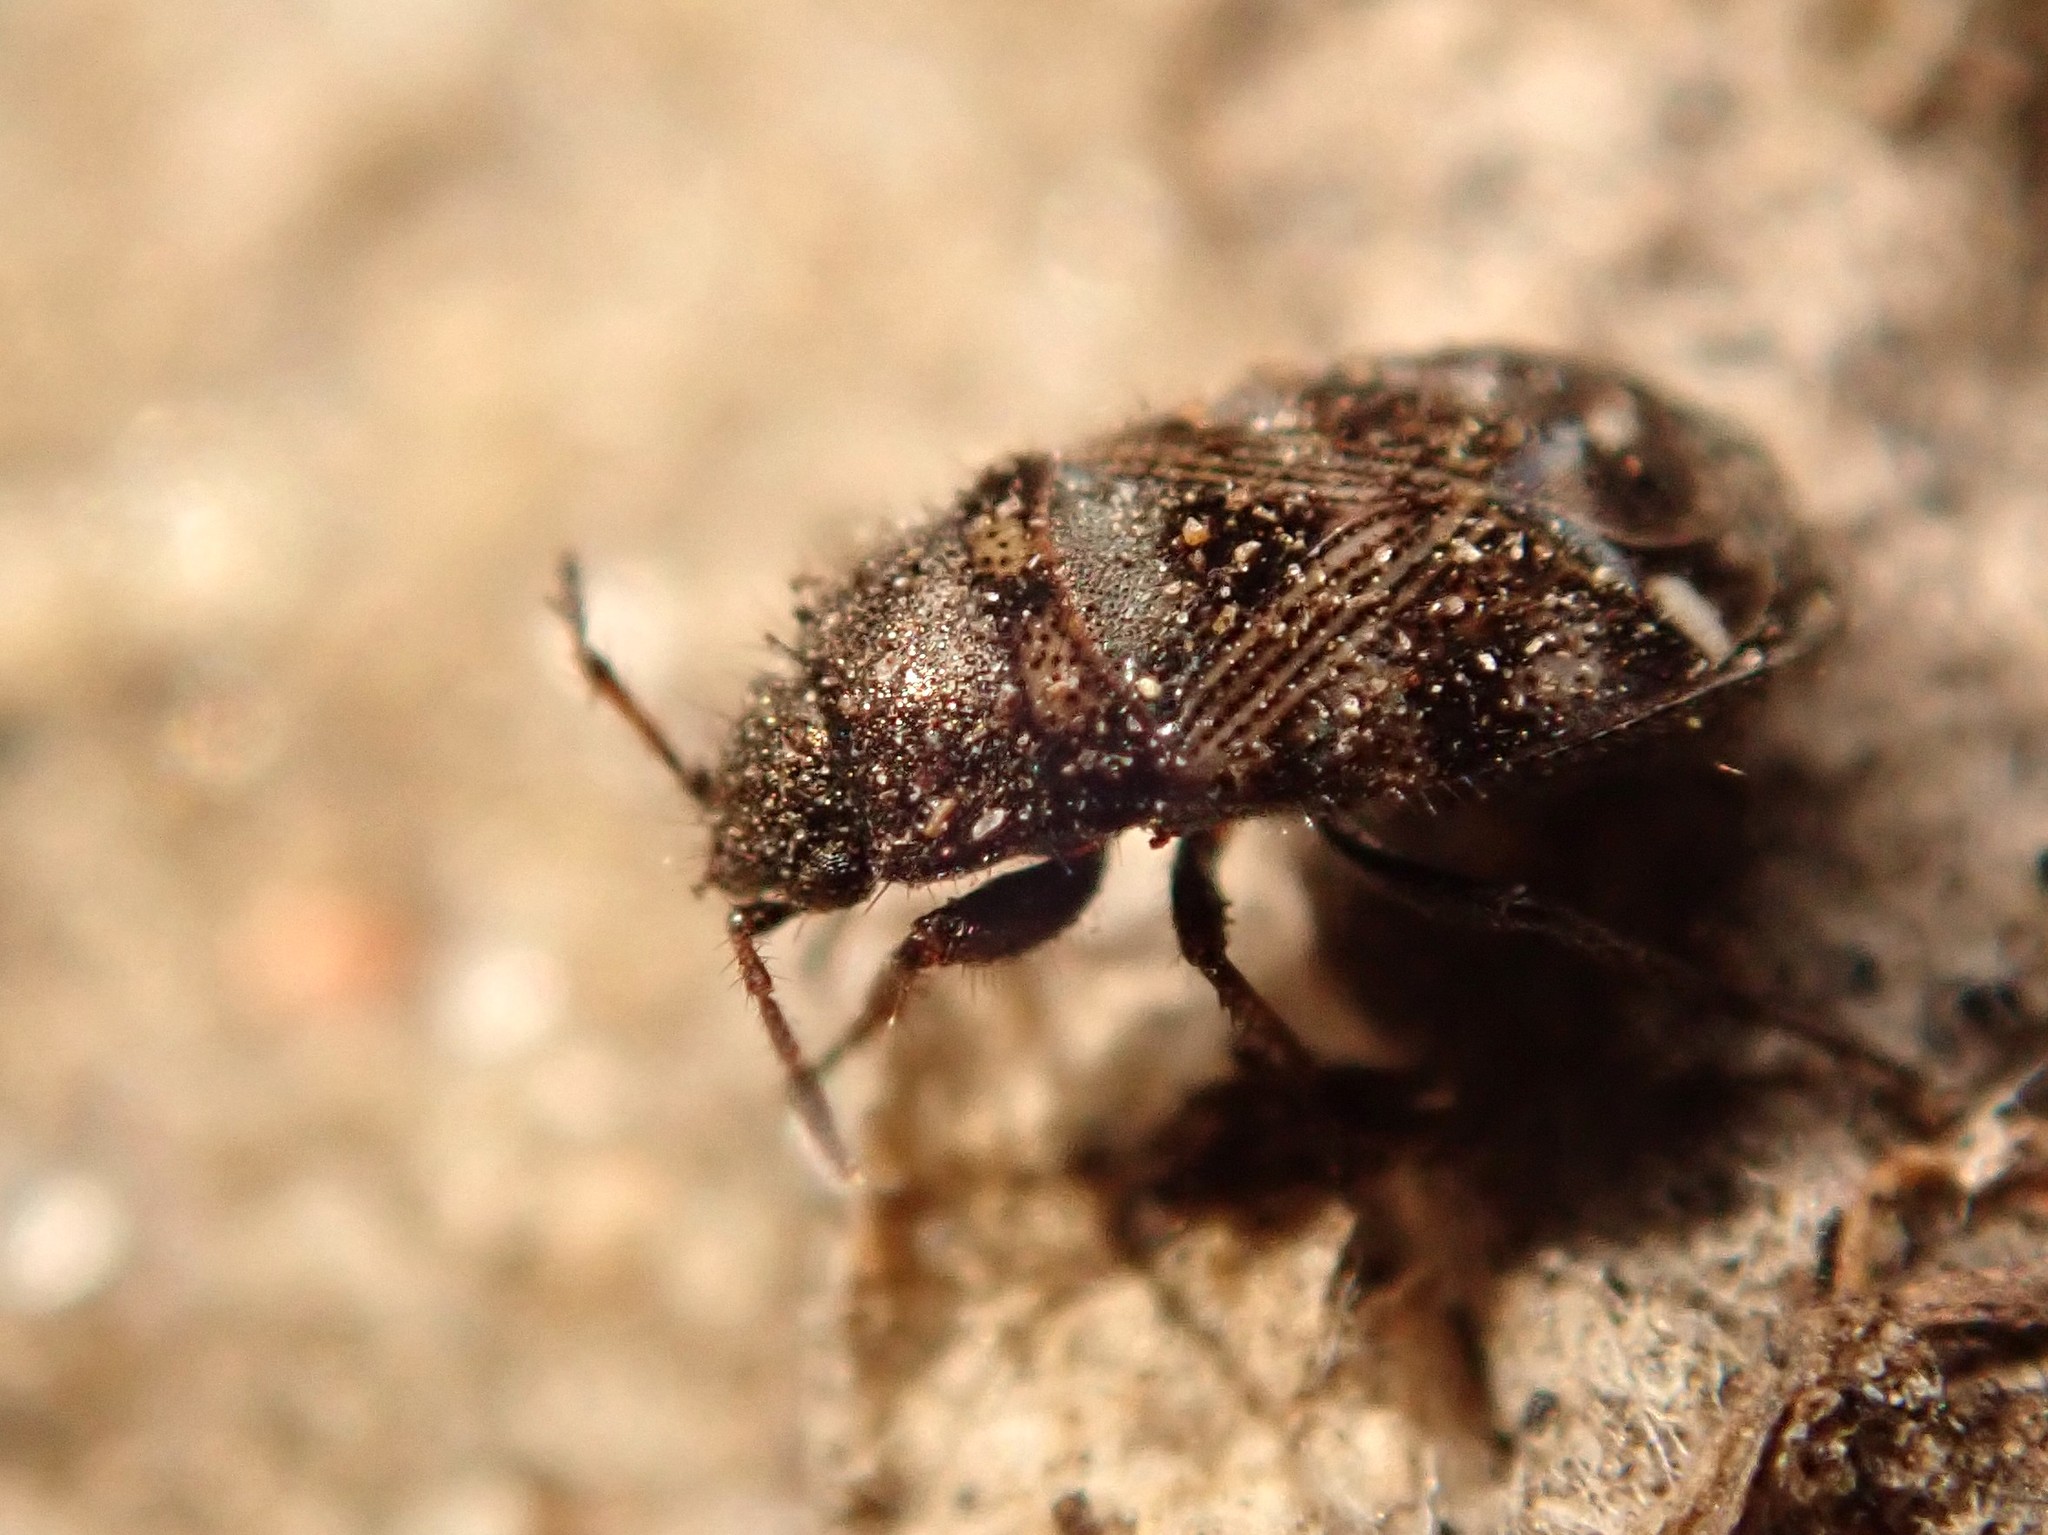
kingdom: Animalia
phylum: Arthropoda
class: Insecta
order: Hemiptera
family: Rhyparochromidae
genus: Pionosomus
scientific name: Pionosomus varius
